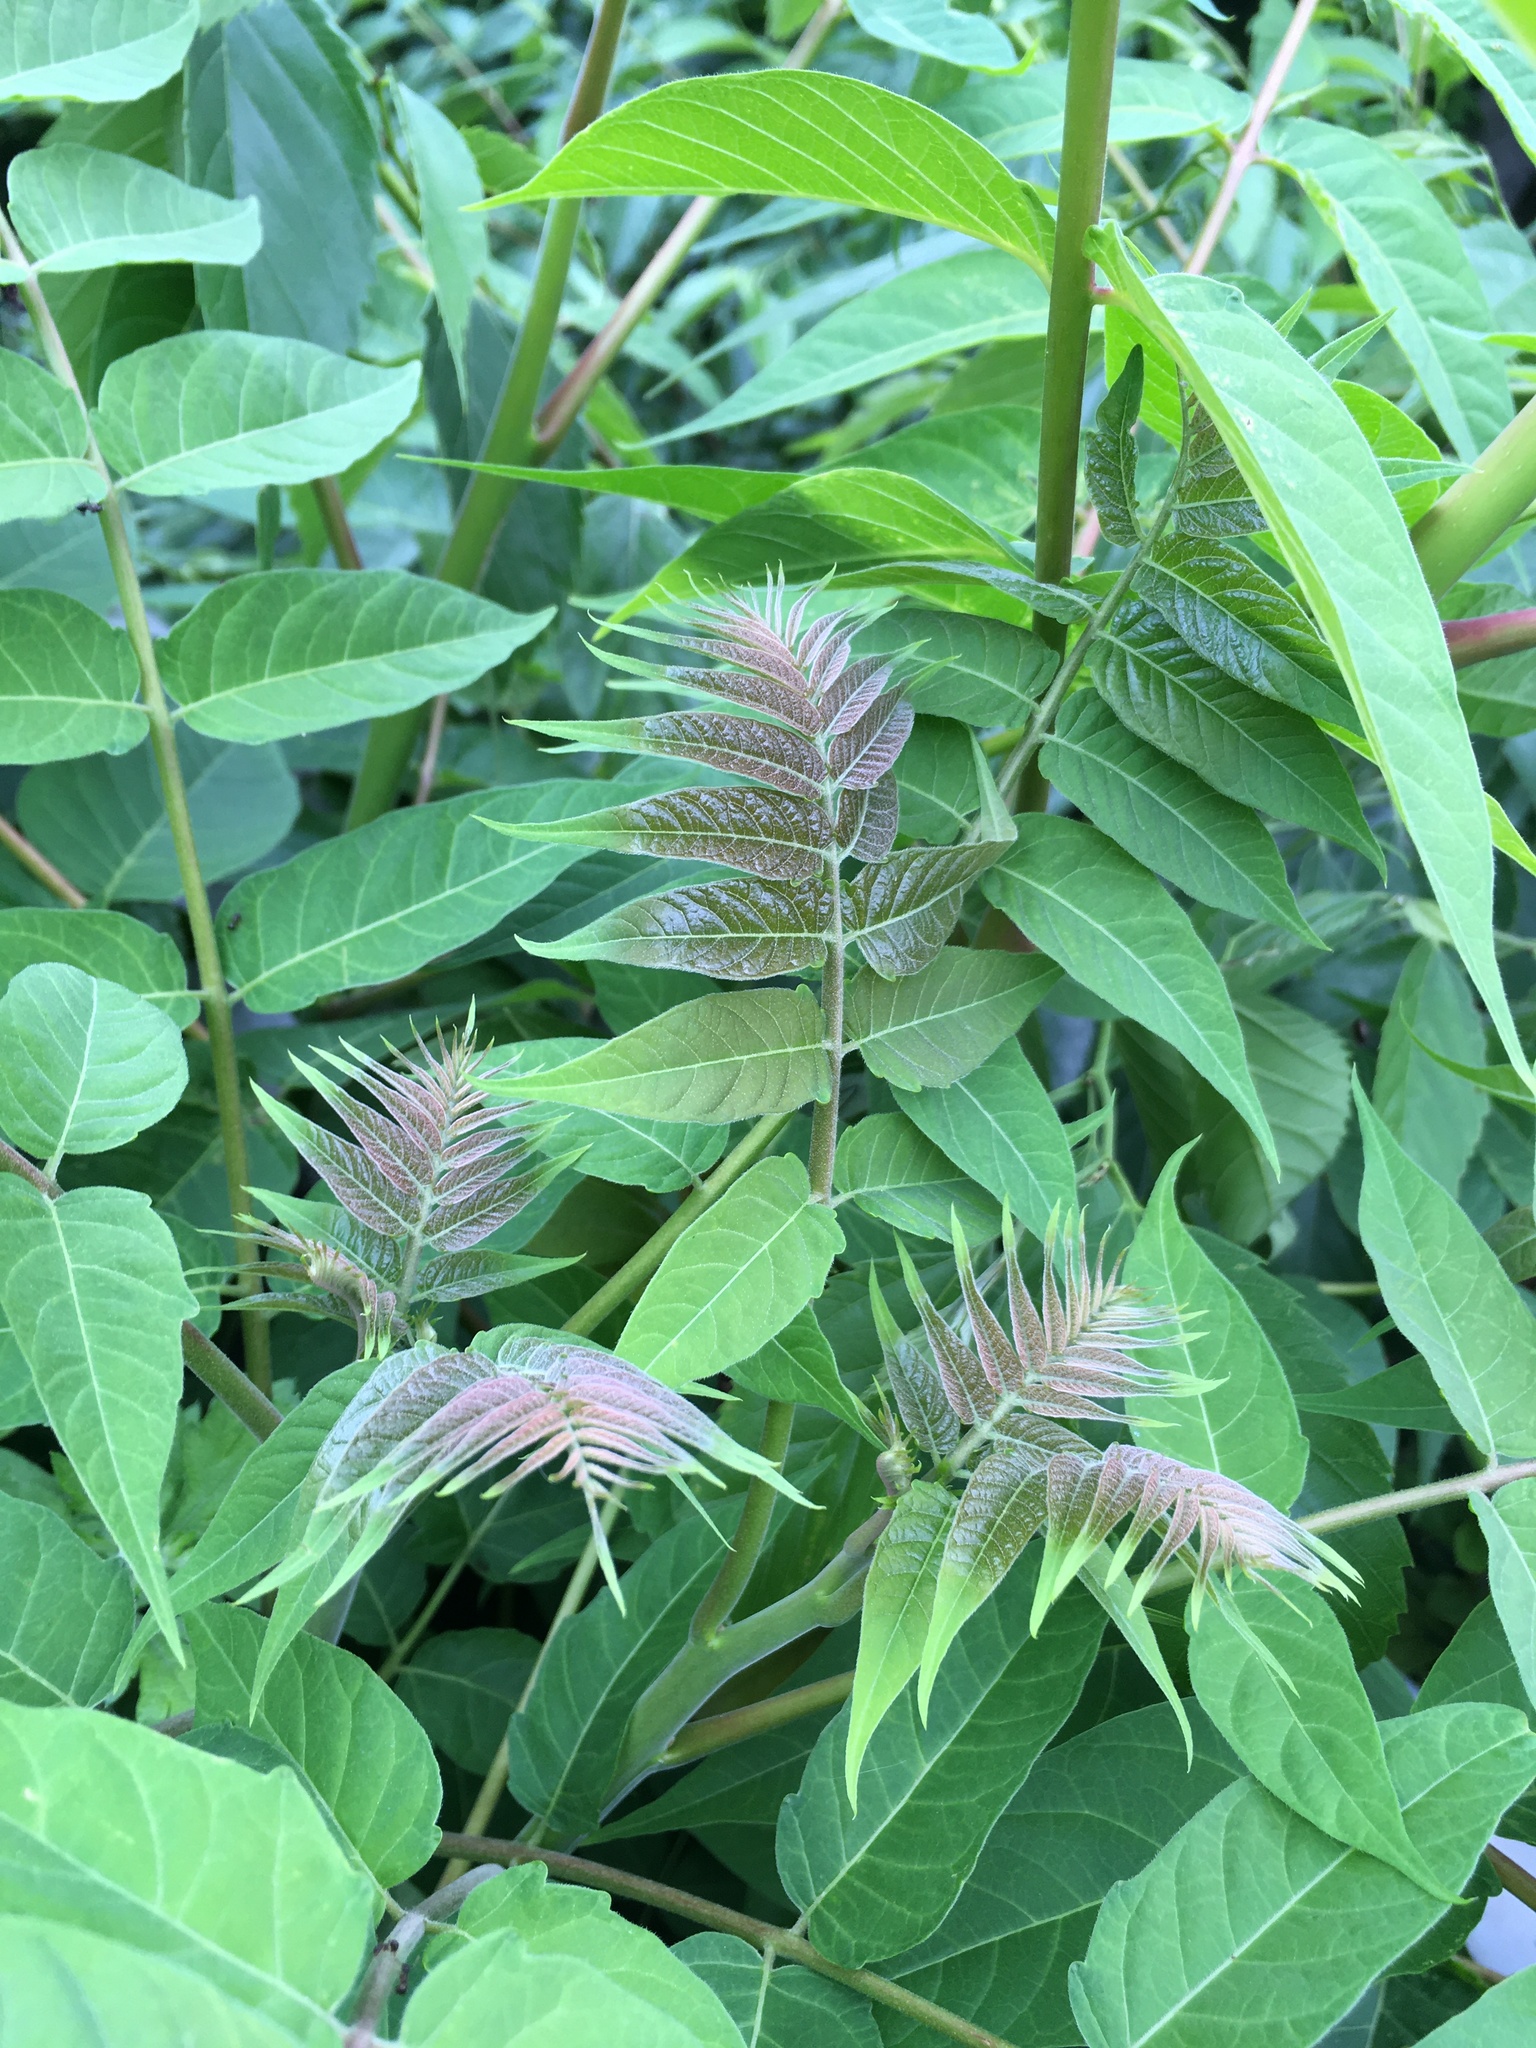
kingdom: Plantae
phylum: Tracheophyta
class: Magnoliopsida
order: Sapindales
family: Simaroubaceae
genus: Ailanthus
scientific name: Ailanthus altissima
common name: Tree-of-heaven
